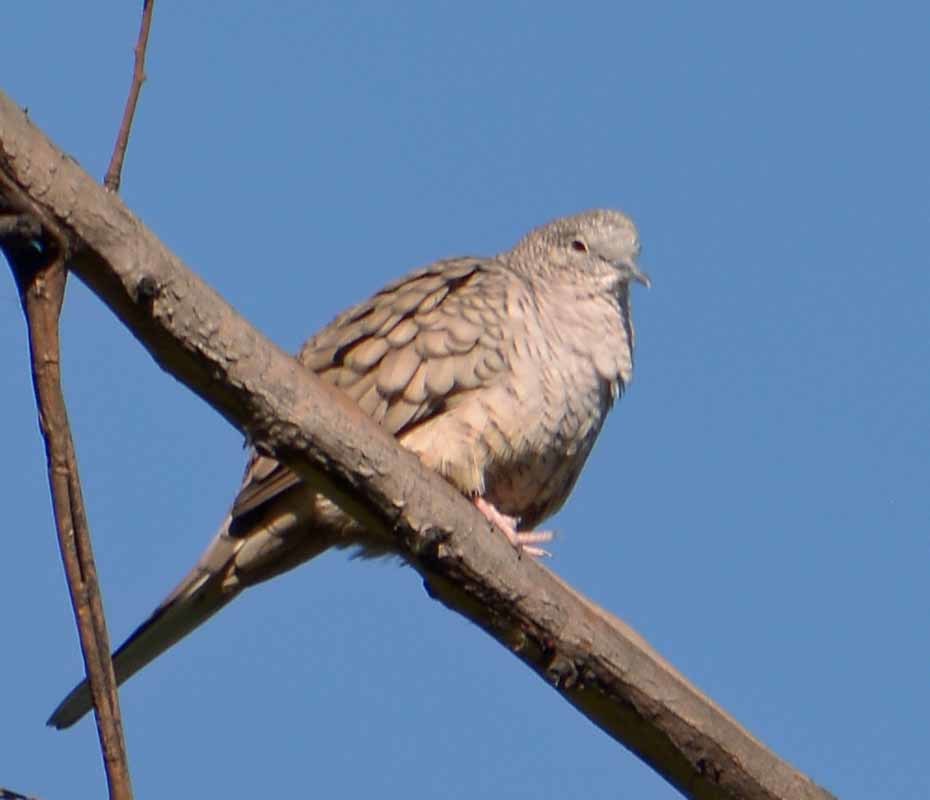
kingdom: Animalia
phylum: Chordata
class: Aves
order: Columbiformes
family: Columbidae
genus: Columbina
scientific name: Columbina inca
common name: Inca dove
